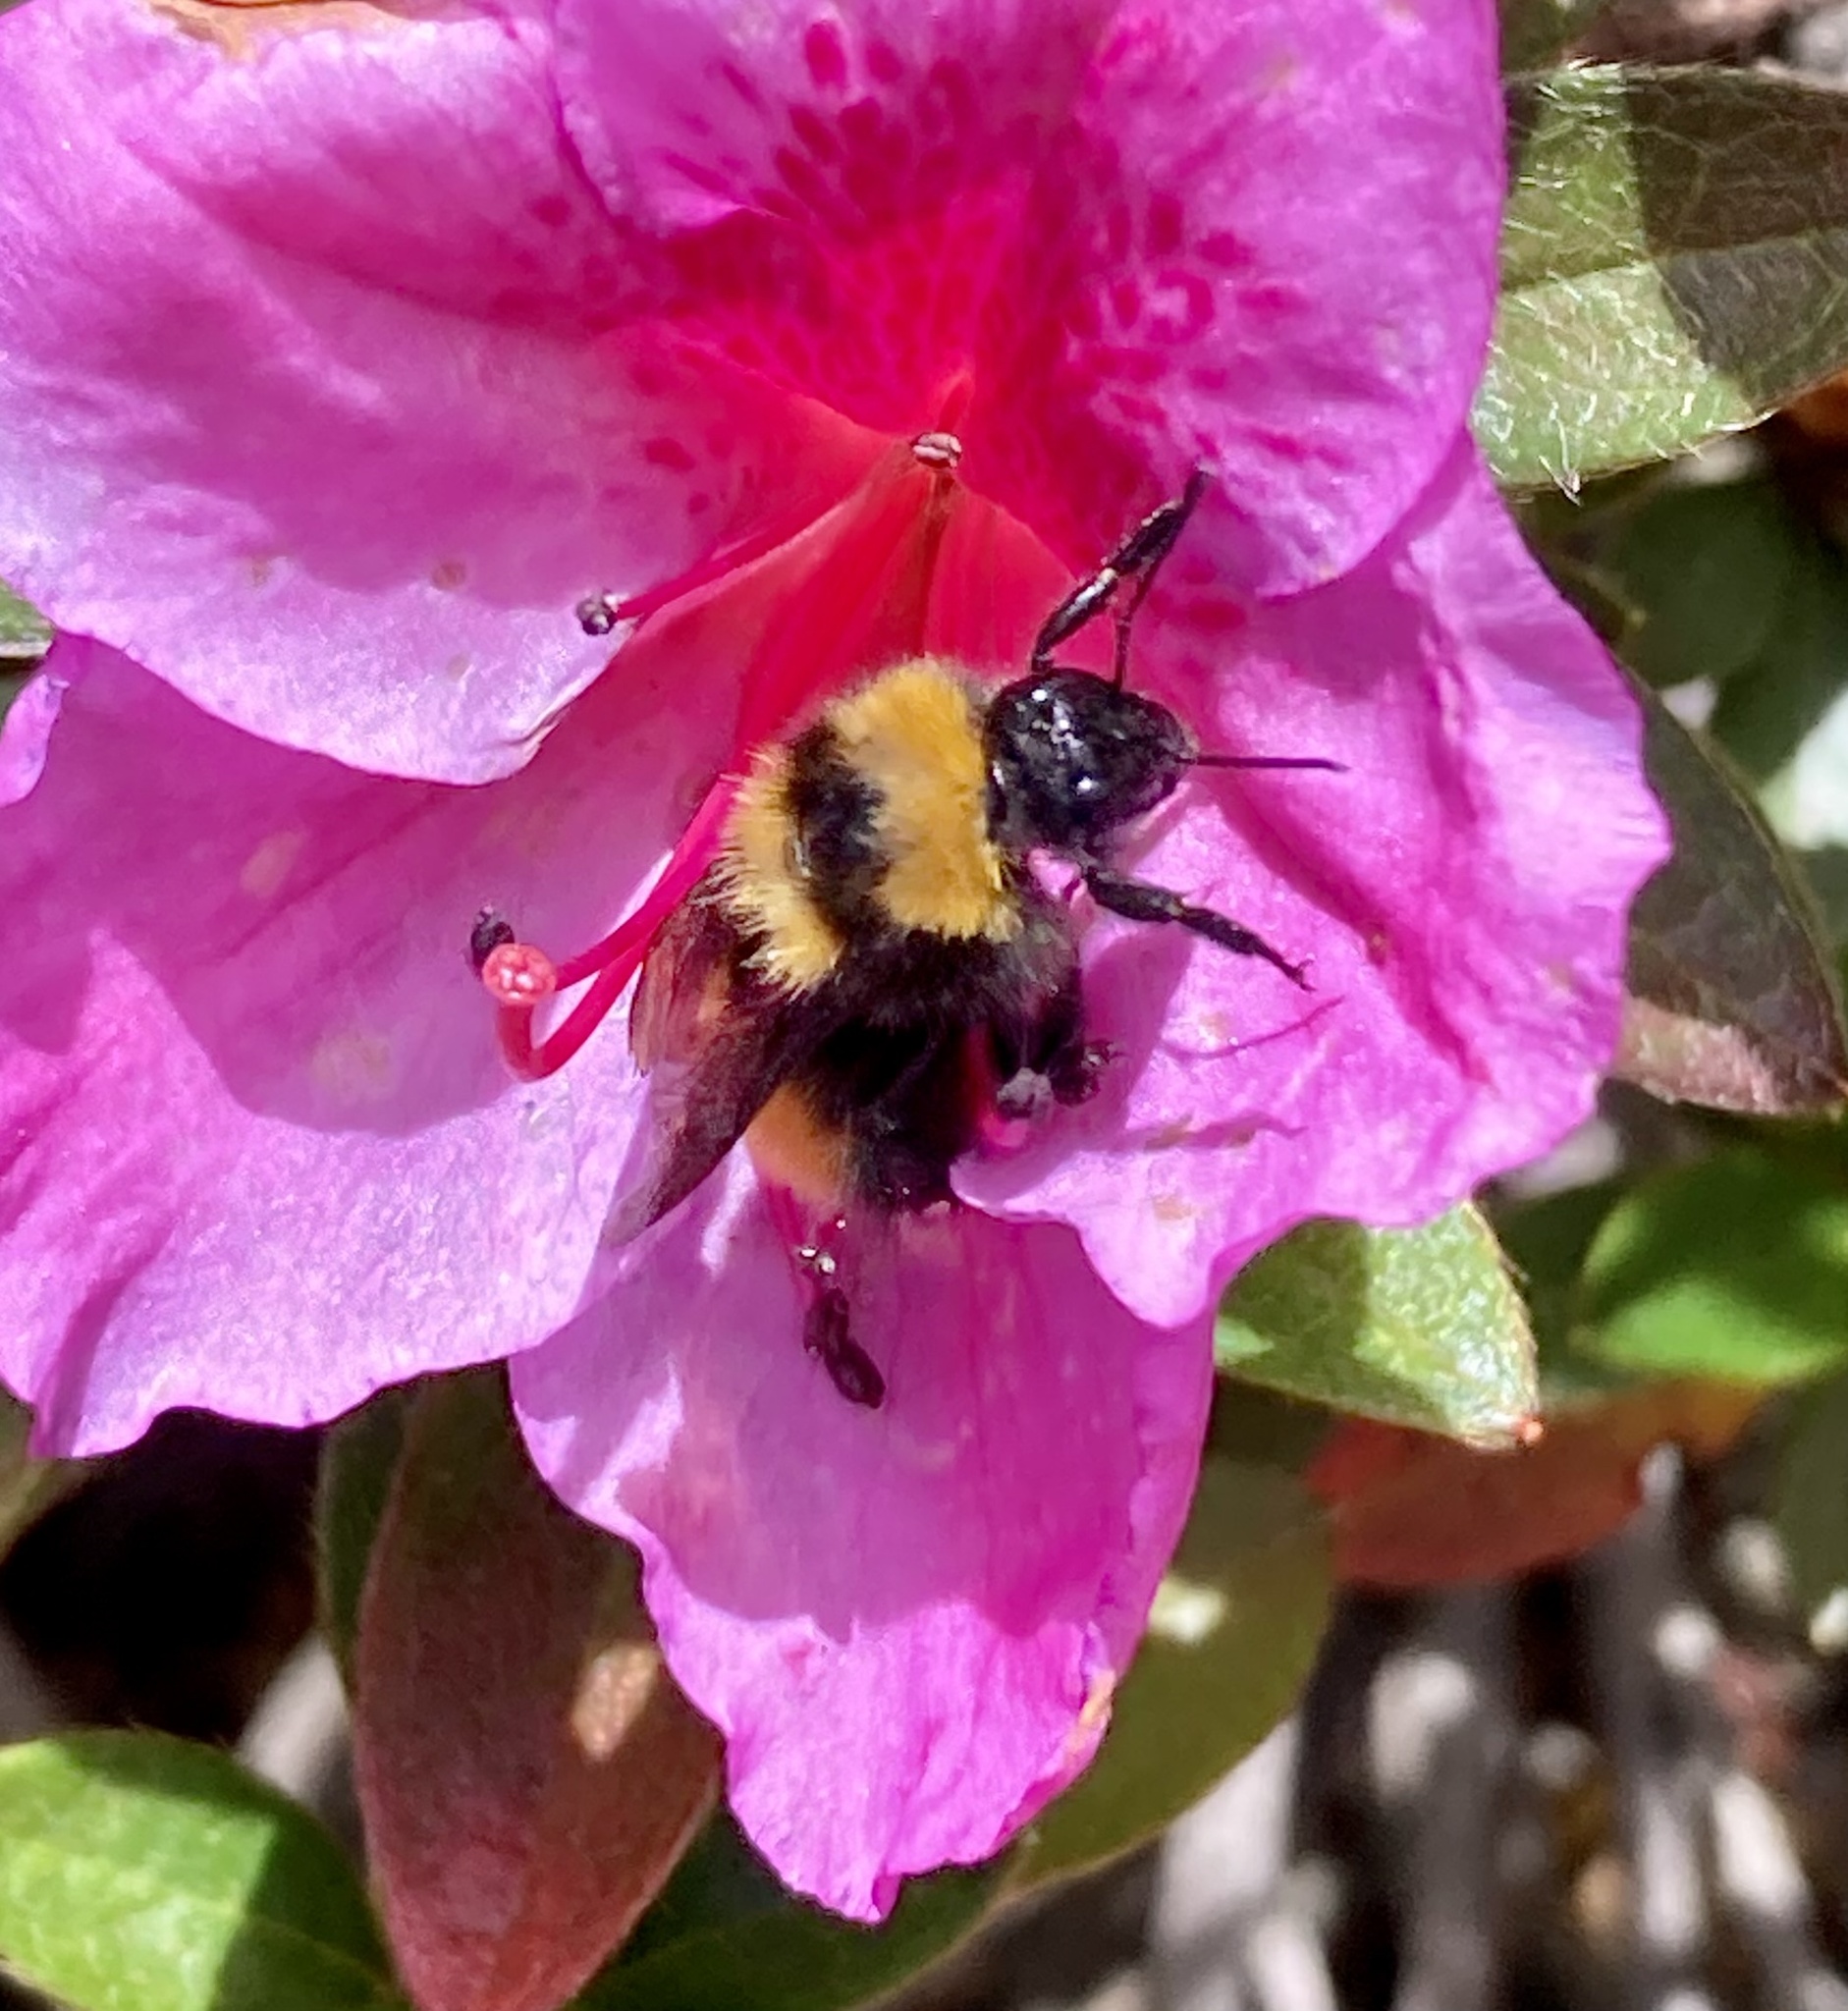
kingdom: Animalia
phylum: Arthropoda
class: Insecta
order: Hymenoptera
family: Apidae
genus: Bombus
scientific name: Bombus hortulanus
